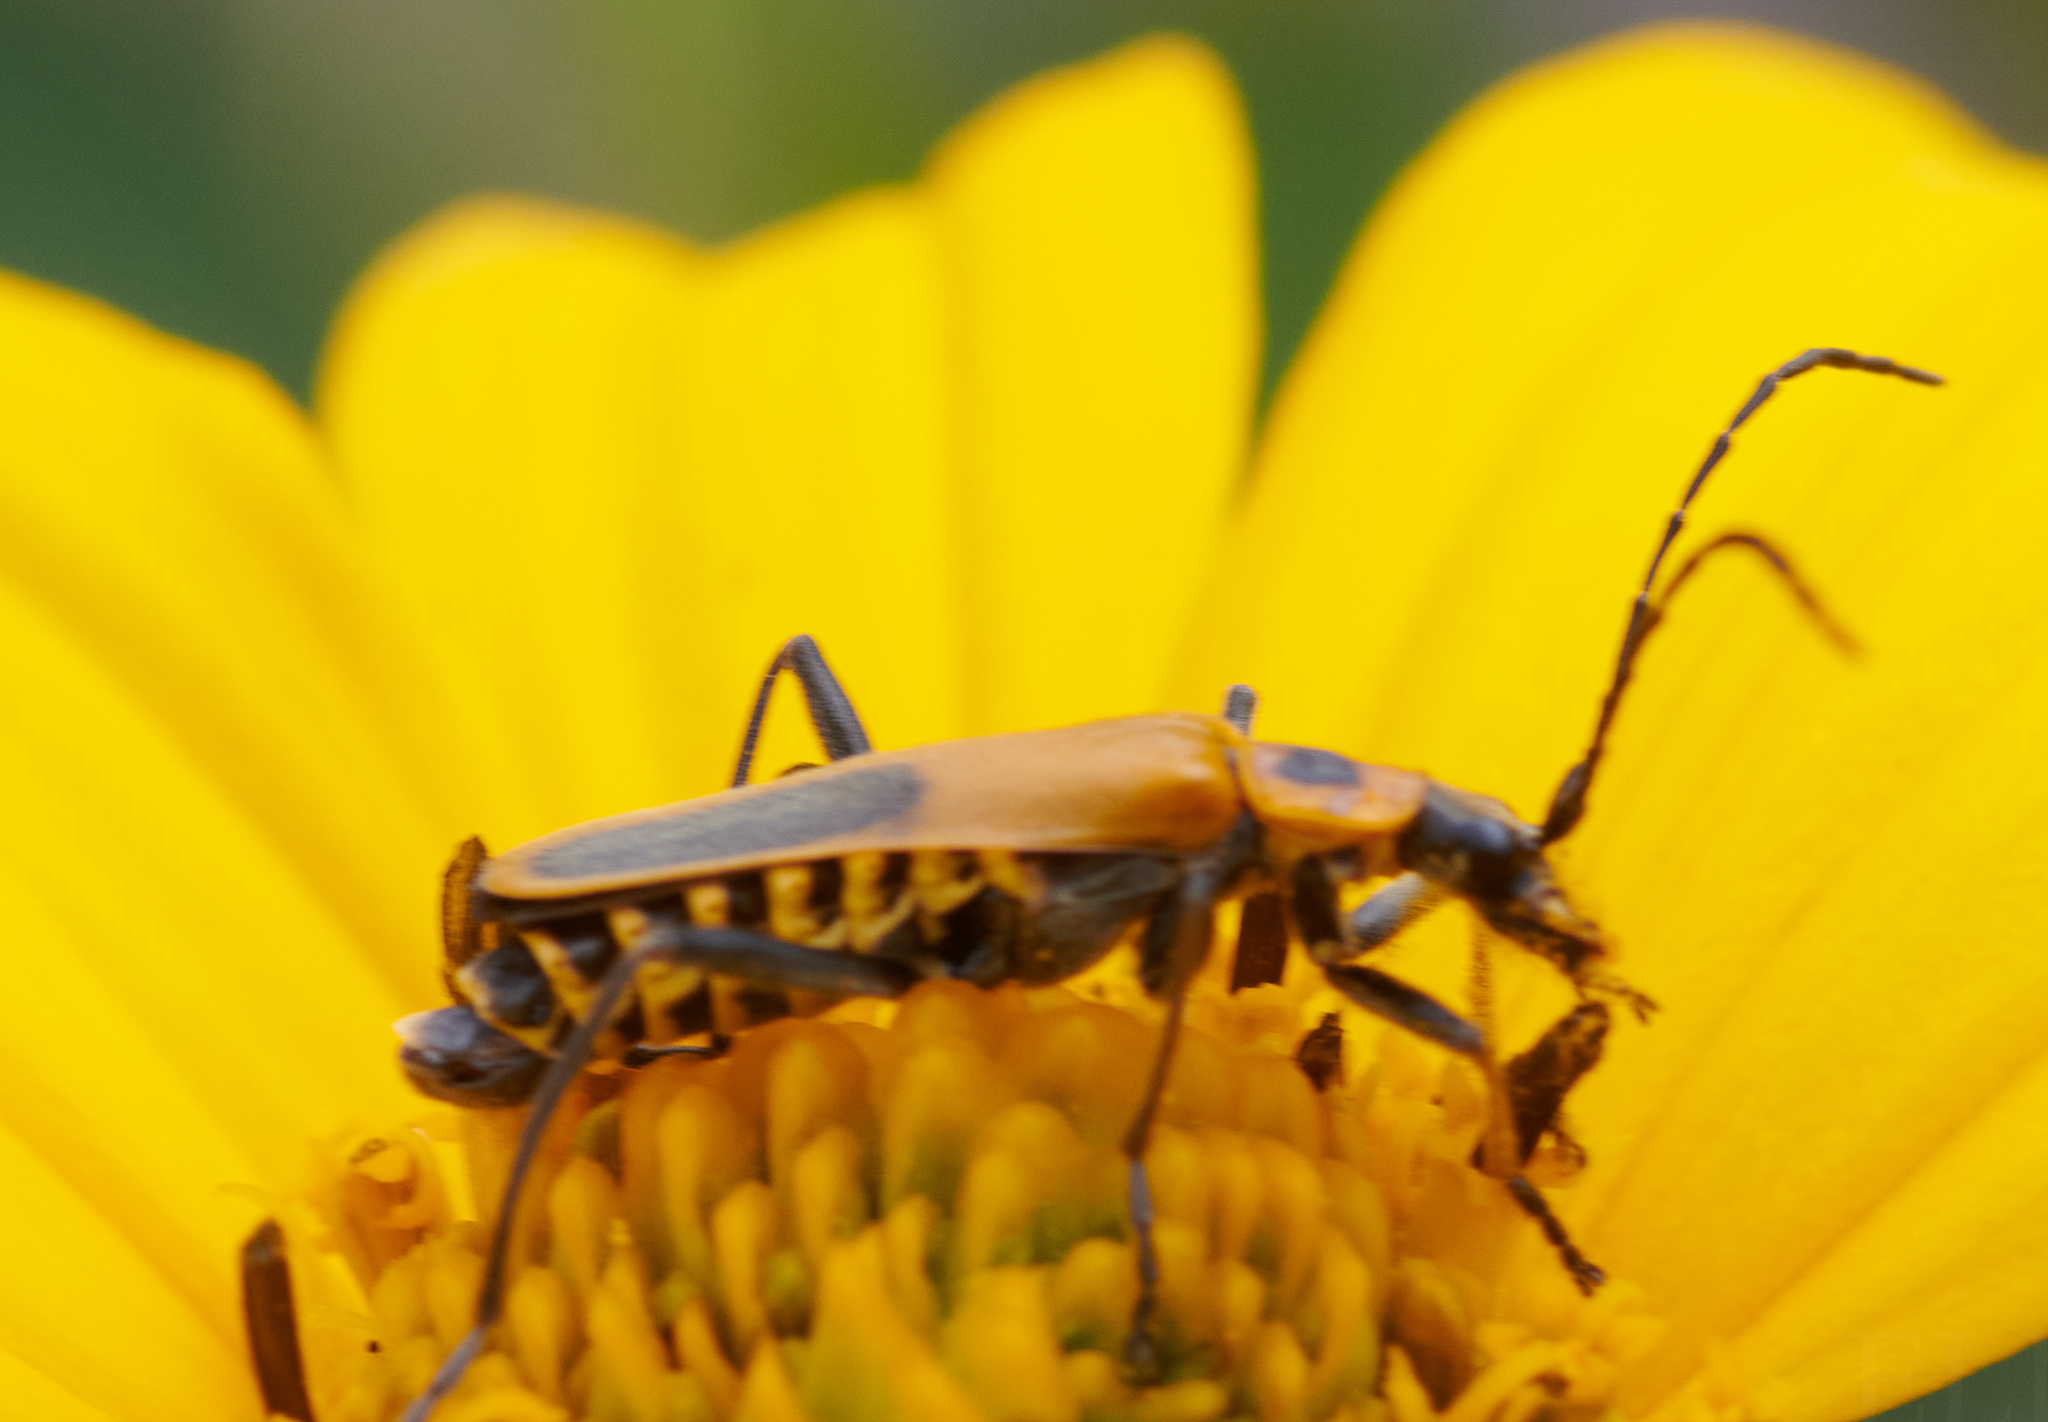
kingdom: Animalia
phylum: Arthropoda
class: Insecta
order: Coleoptera
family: Cantharidae
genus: Chauliognathus
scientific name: Chauliognathus pensylvanicus
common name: Goldenrod soldier beetle
